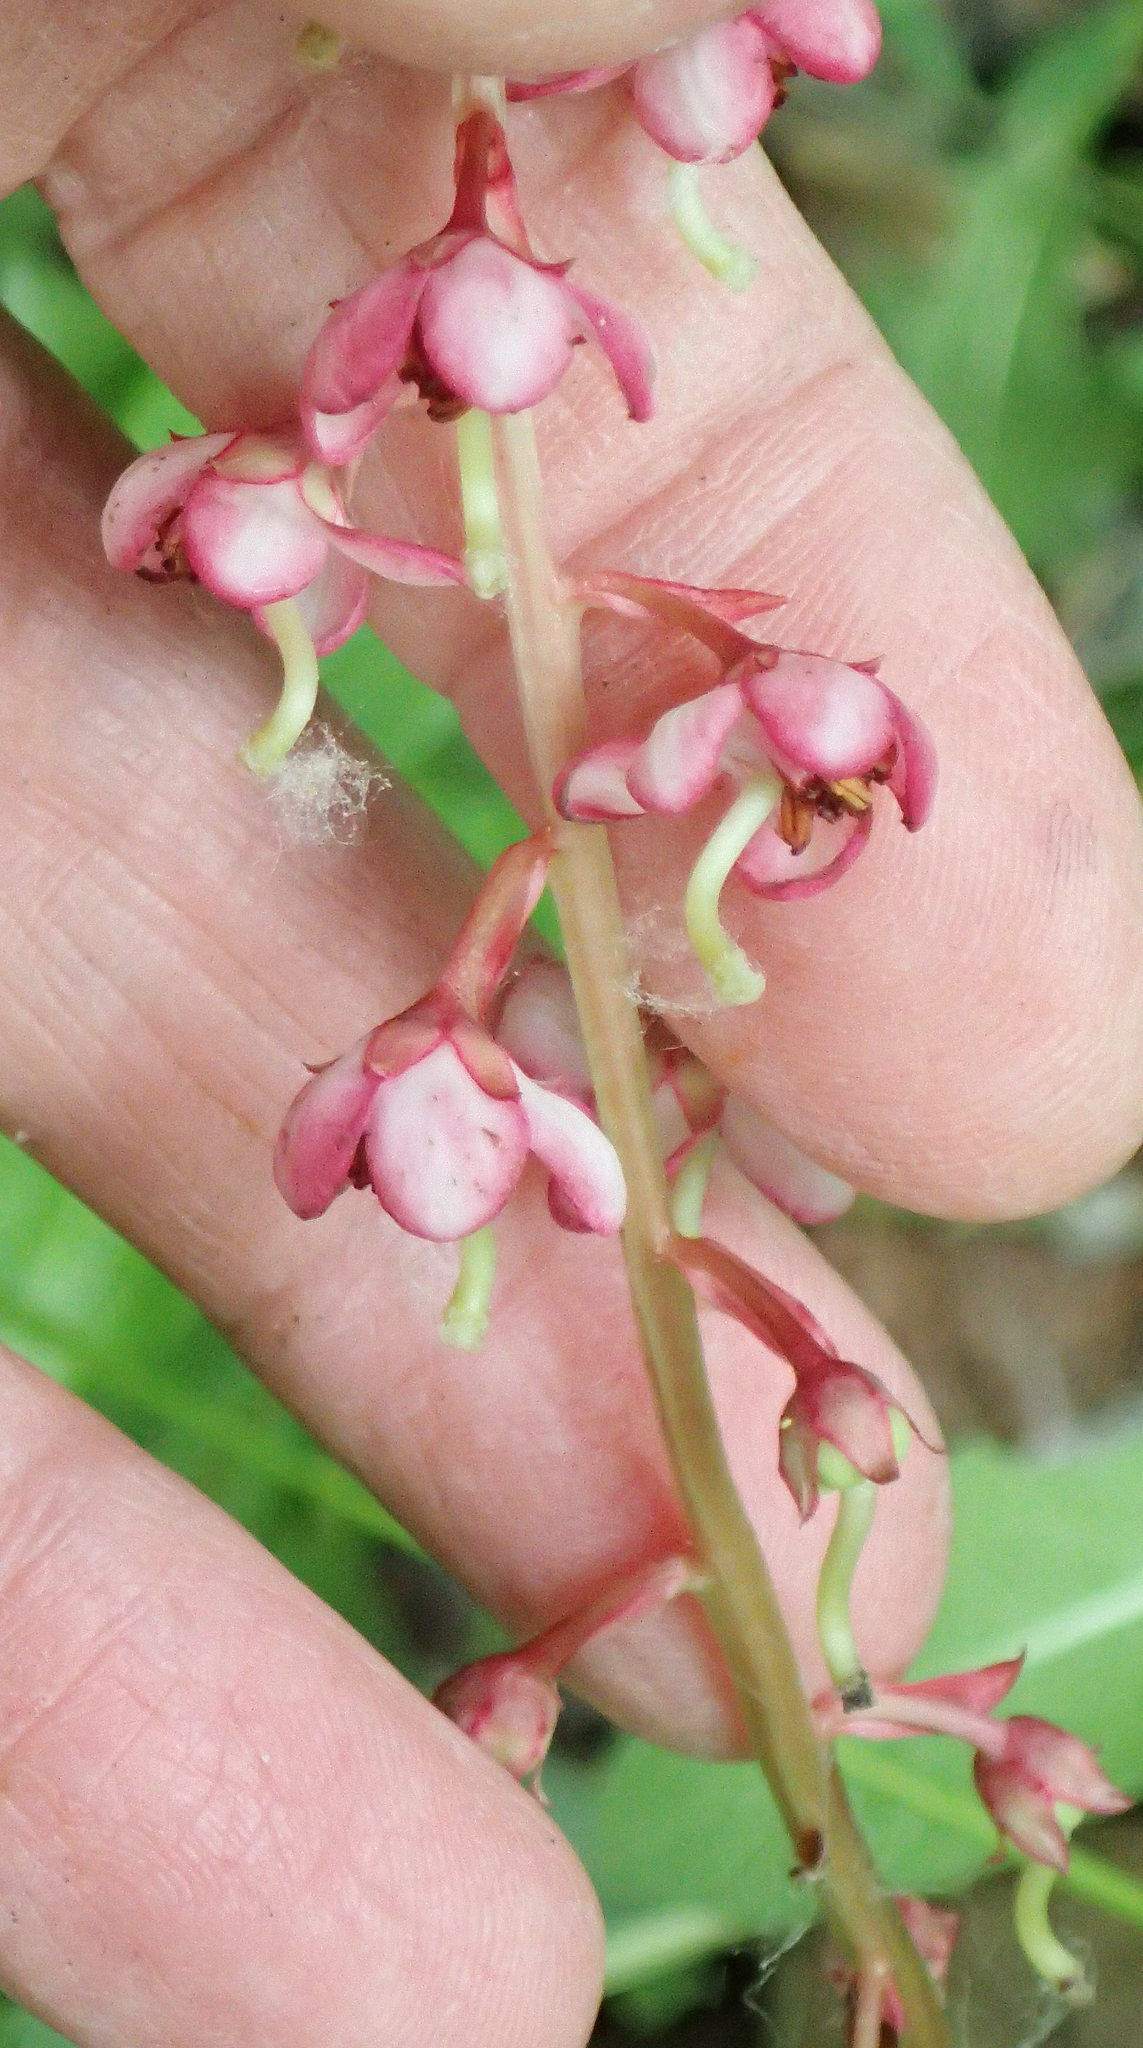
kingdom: Plantae
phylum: Tracheophyta
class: Magnoliopsida
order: Ericales
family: Ericaceae
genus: Pyrola
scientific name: Pyrola asarifolia
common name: Bog wintergreen
